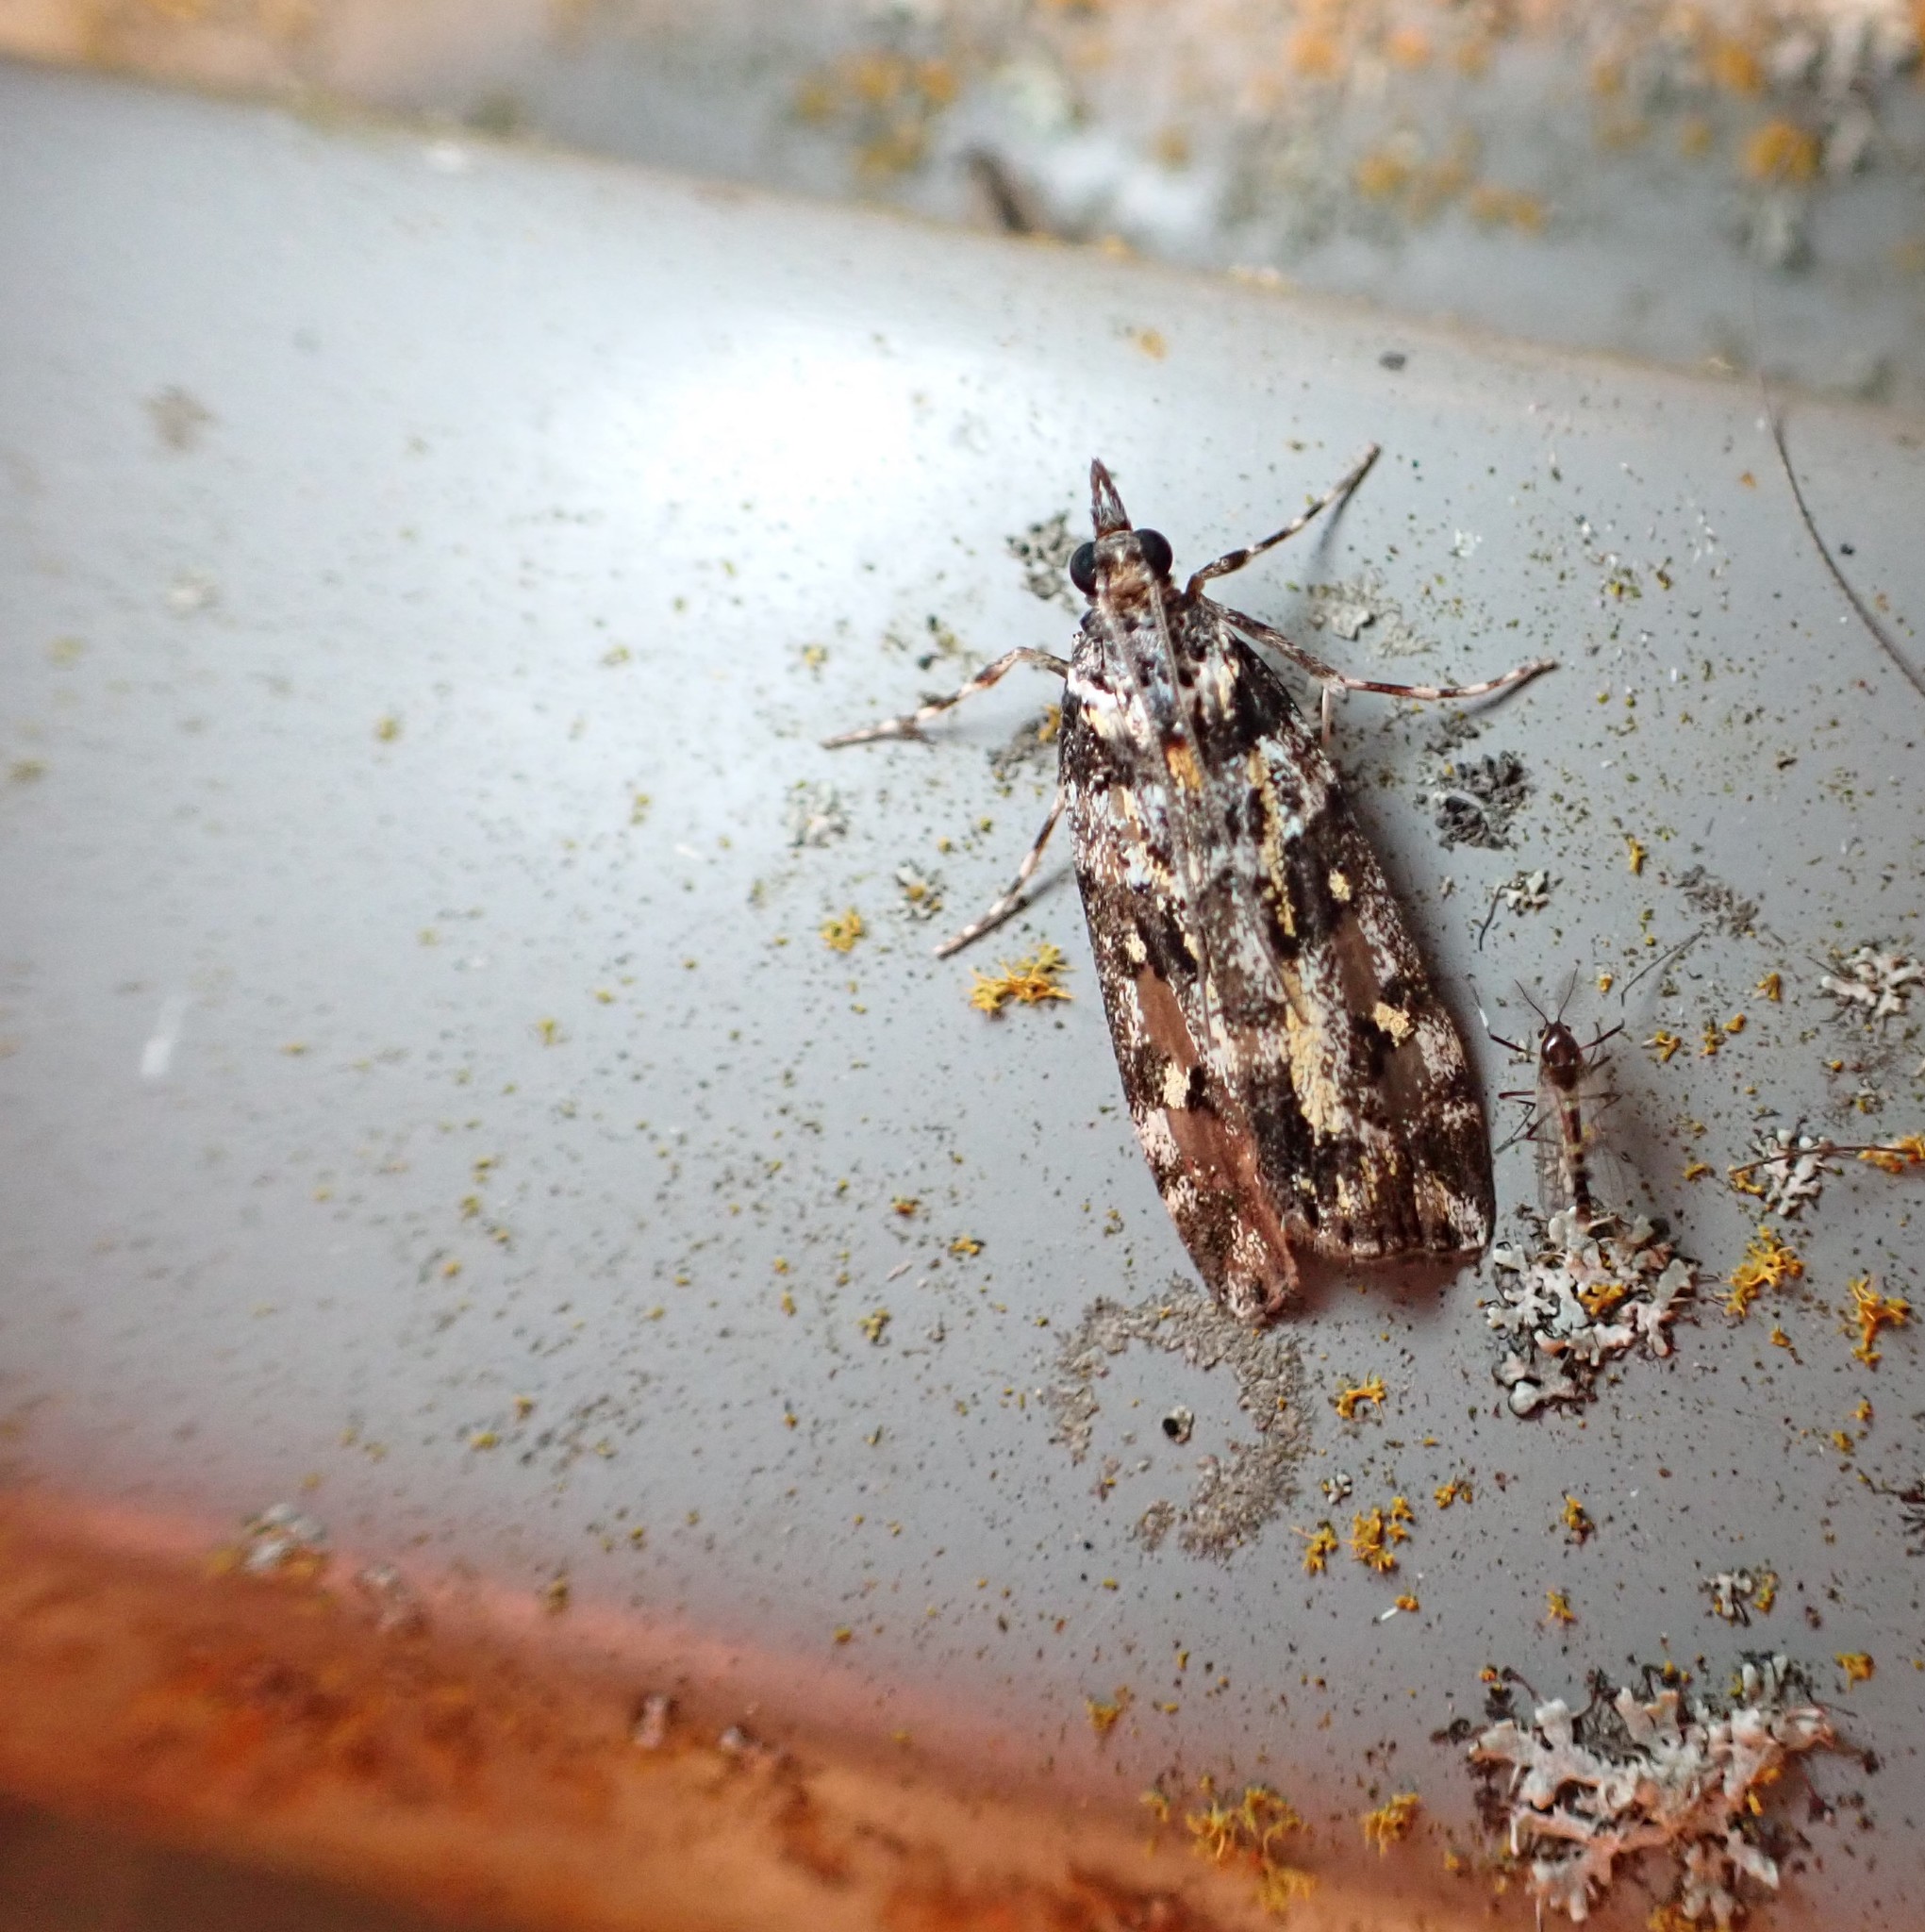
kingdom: Animalia
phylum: Arthropoda
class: Insecta
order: Lepidoptera
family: Crambidae
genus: Eudonia
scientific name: Eudonia diphtheralis
